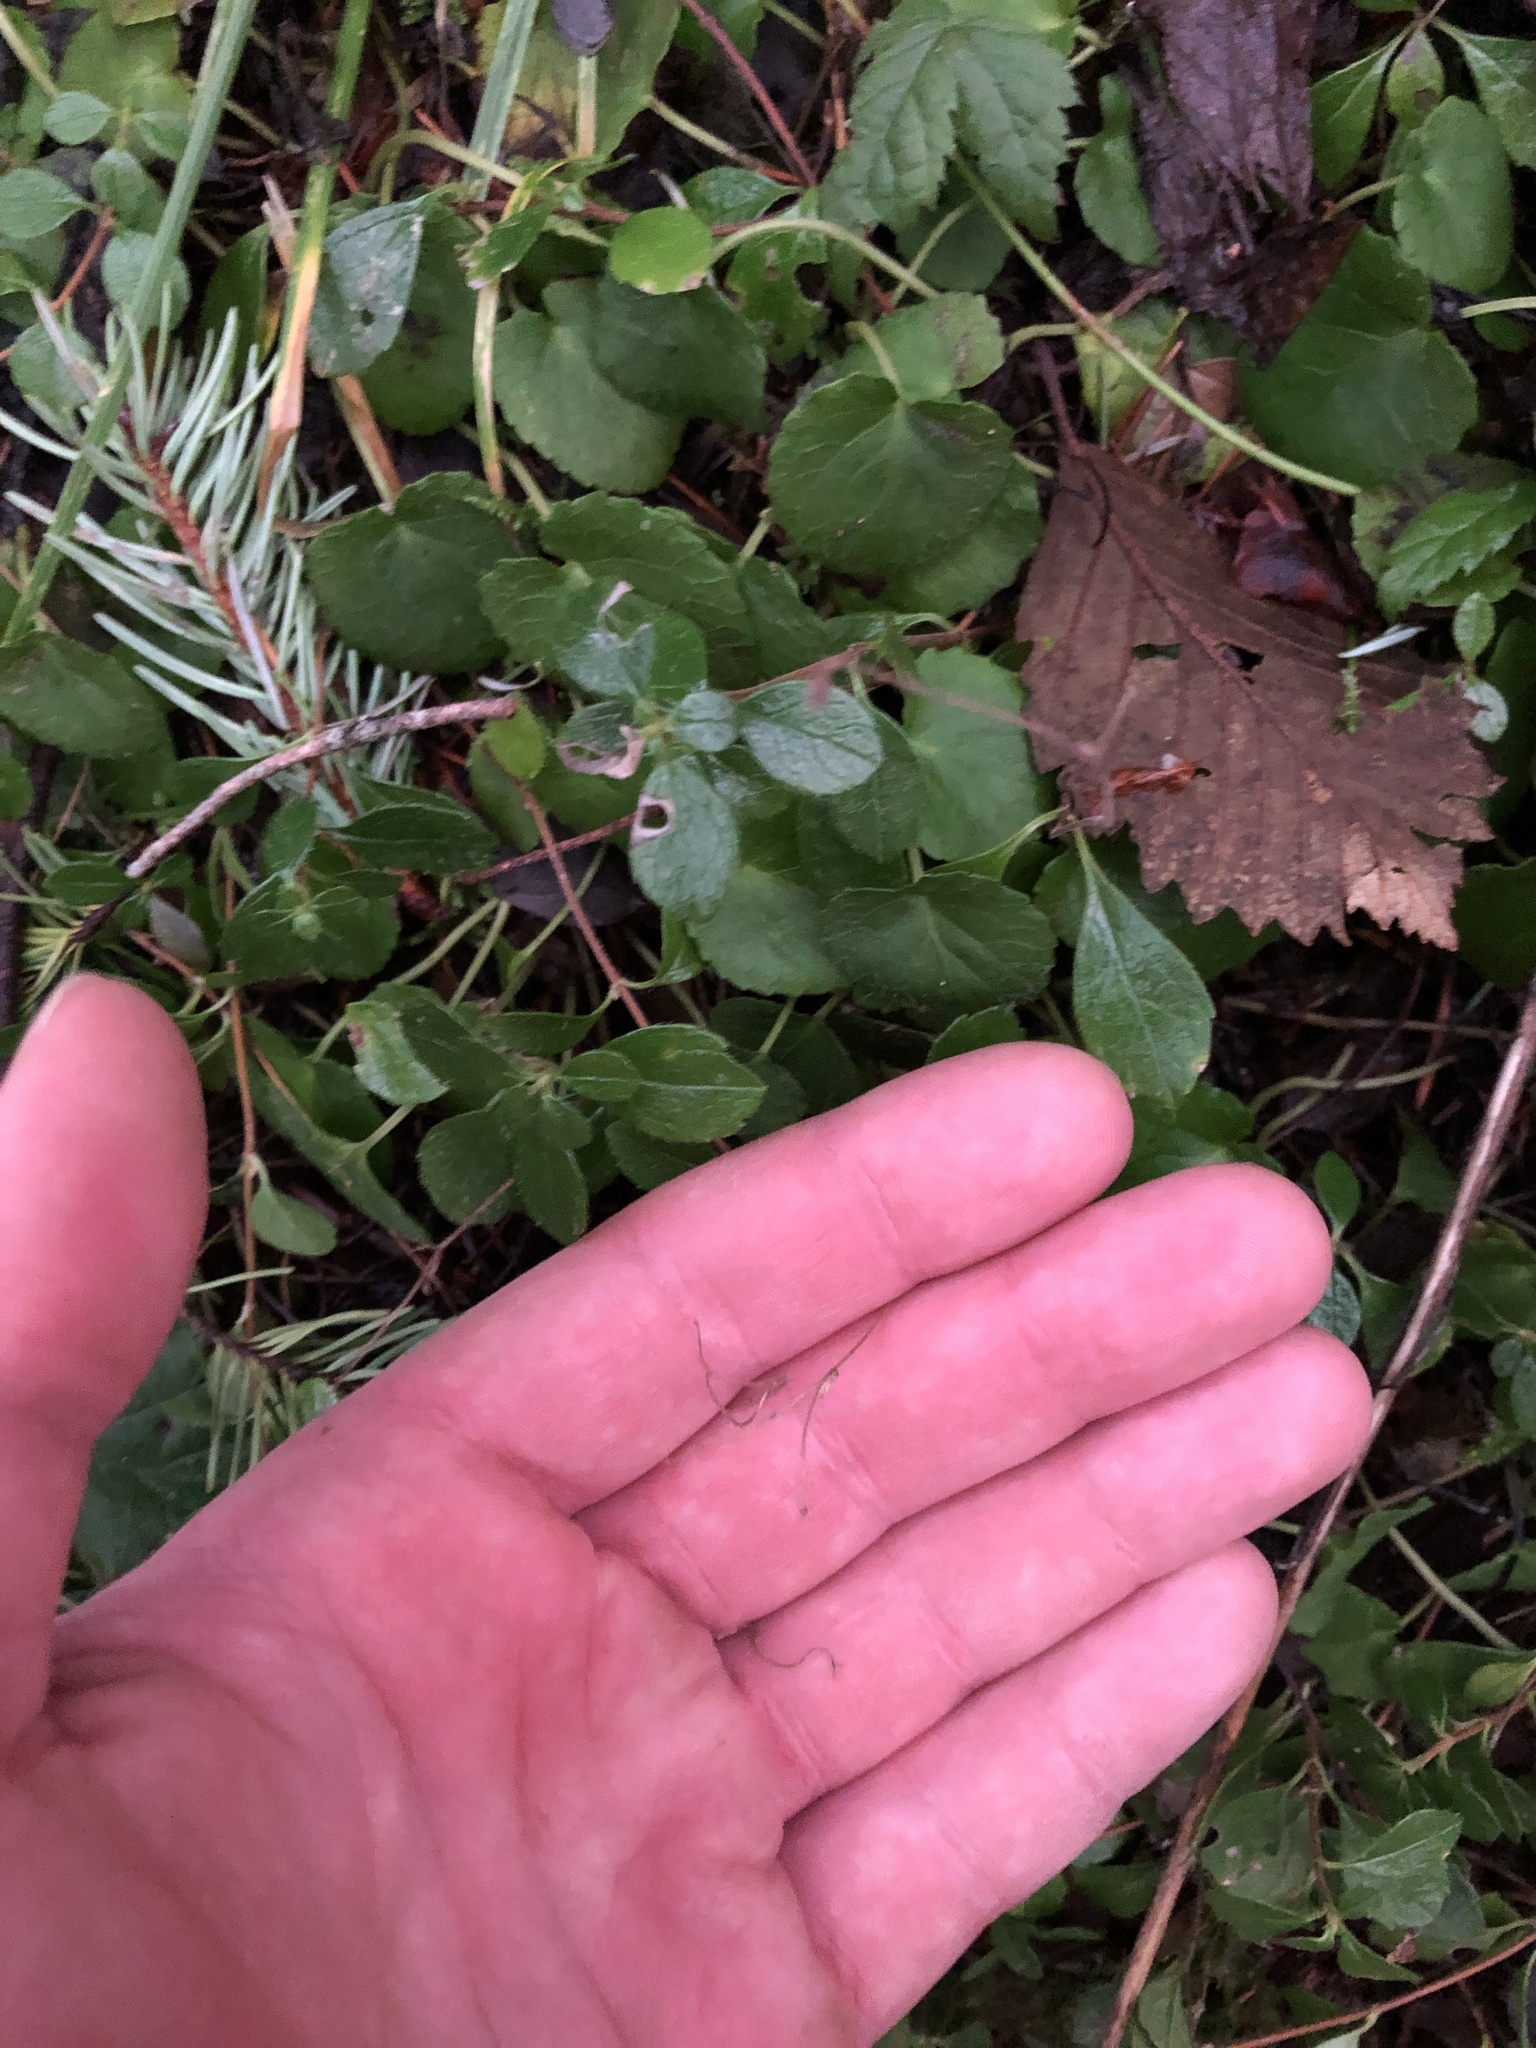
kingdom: Plantae
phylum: Tracheophyta
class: Magnoliopsida
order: Dipsacales
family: Caprifoliaceae
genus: Linnaea
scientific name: Linnaea borealis
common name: Twinflower
